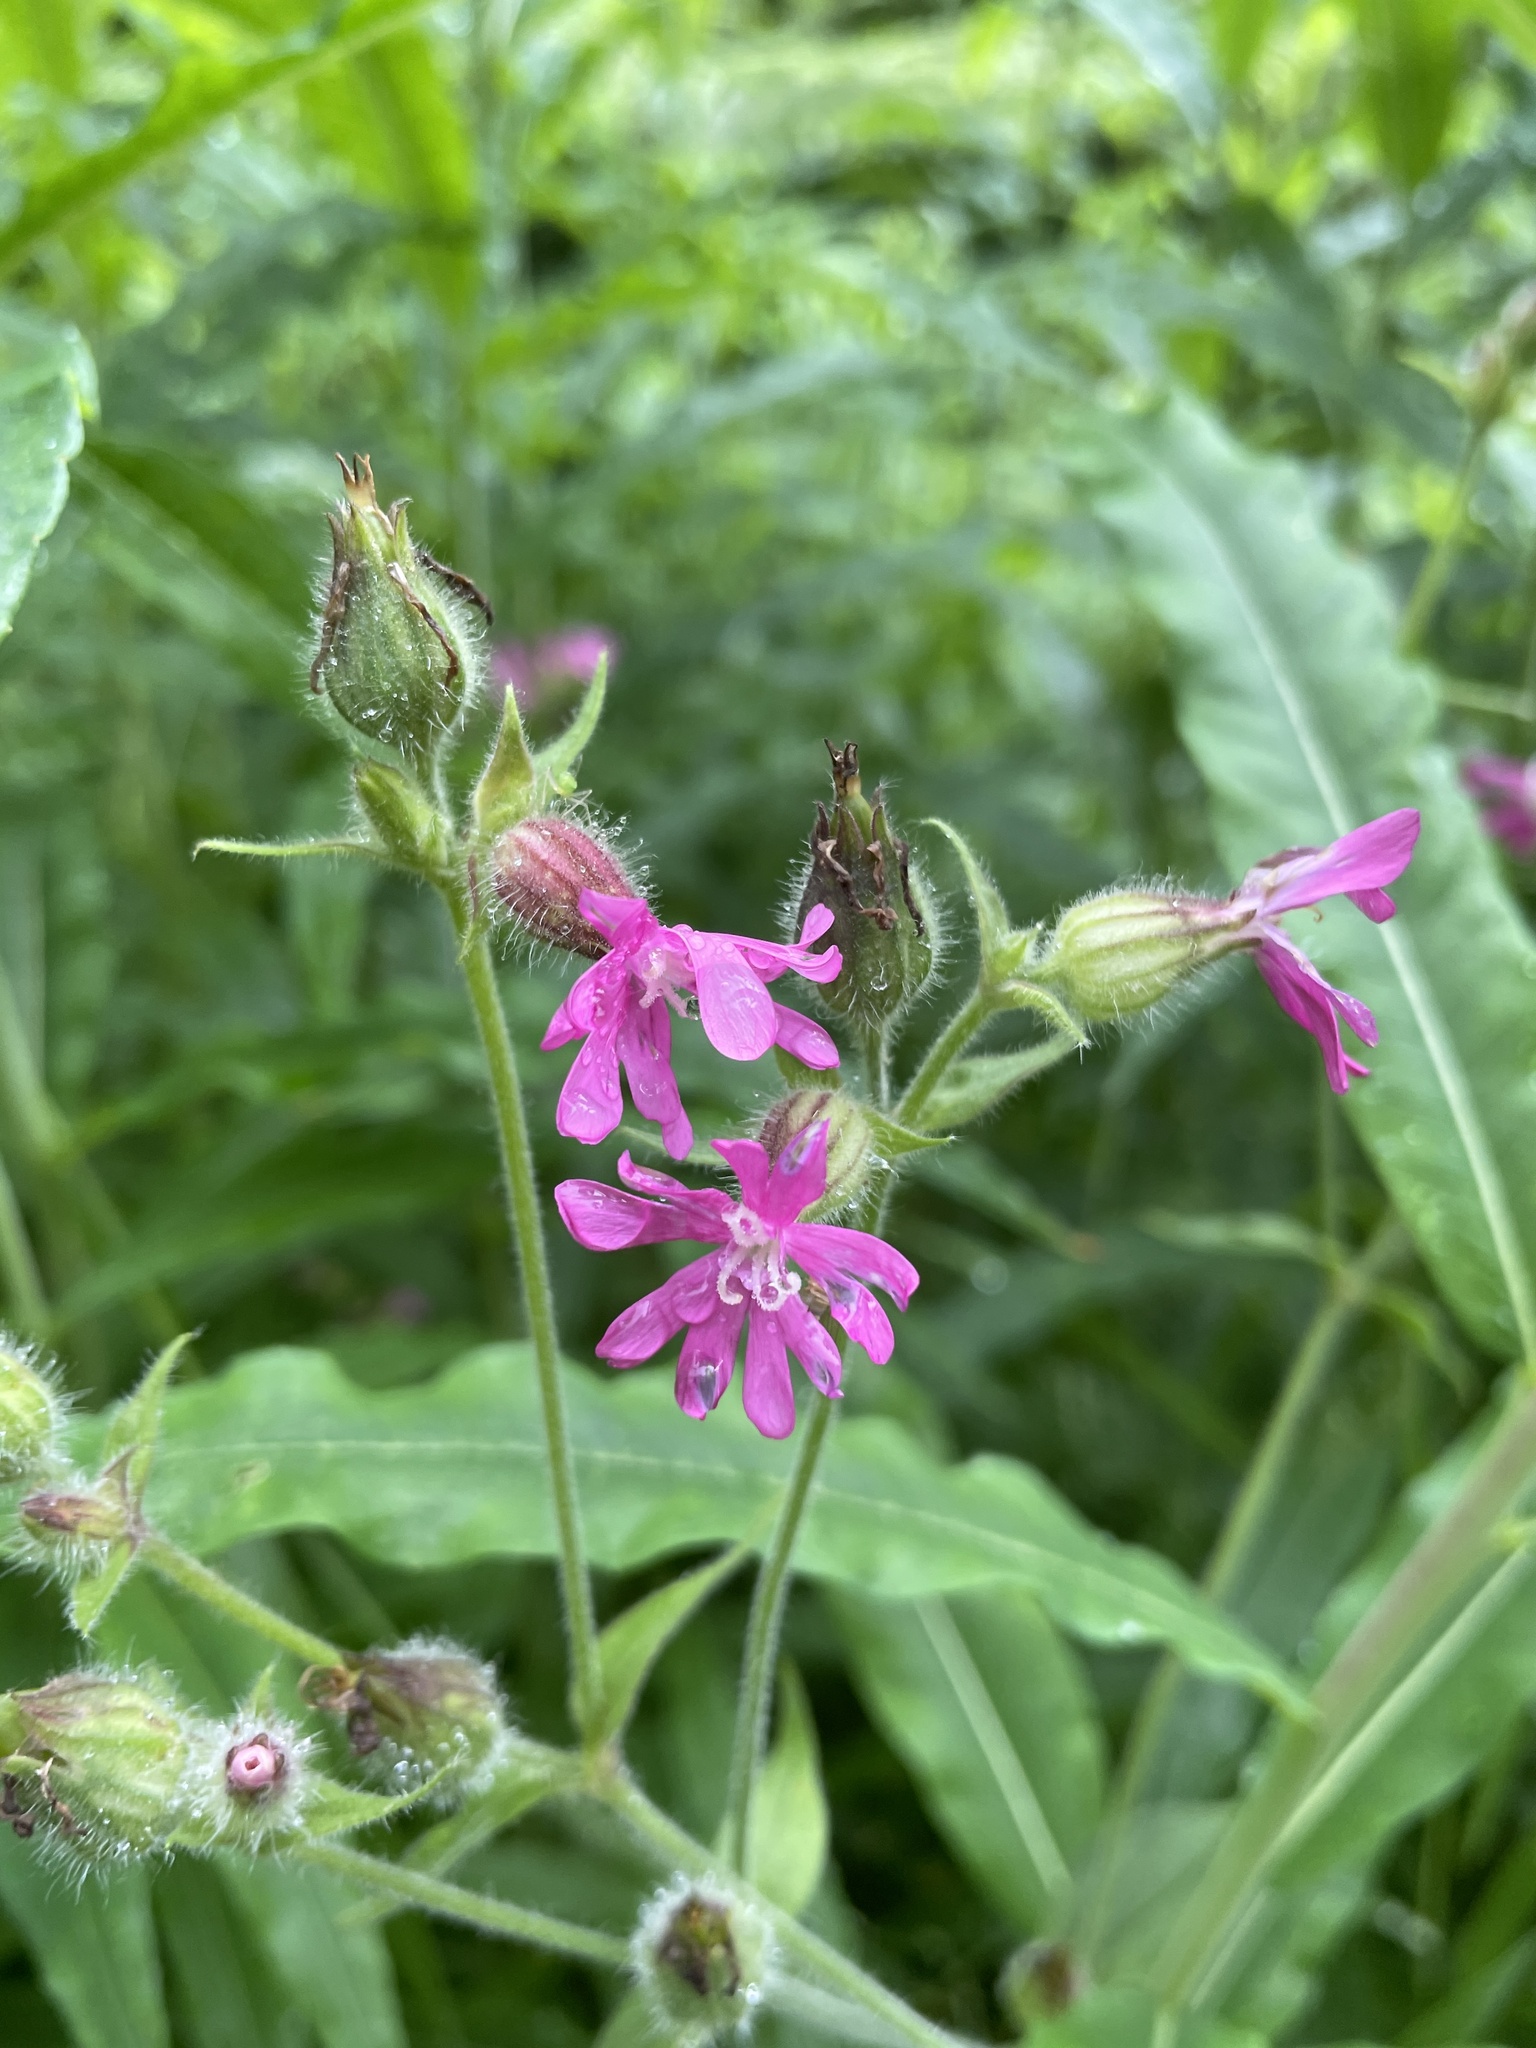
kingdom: Plantae
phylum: Tracheophyta
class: Magnoliopsida
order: Caryophyllales
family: Caryophyllaceae
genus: Silene
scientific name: Silene dioica
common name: Red campion
